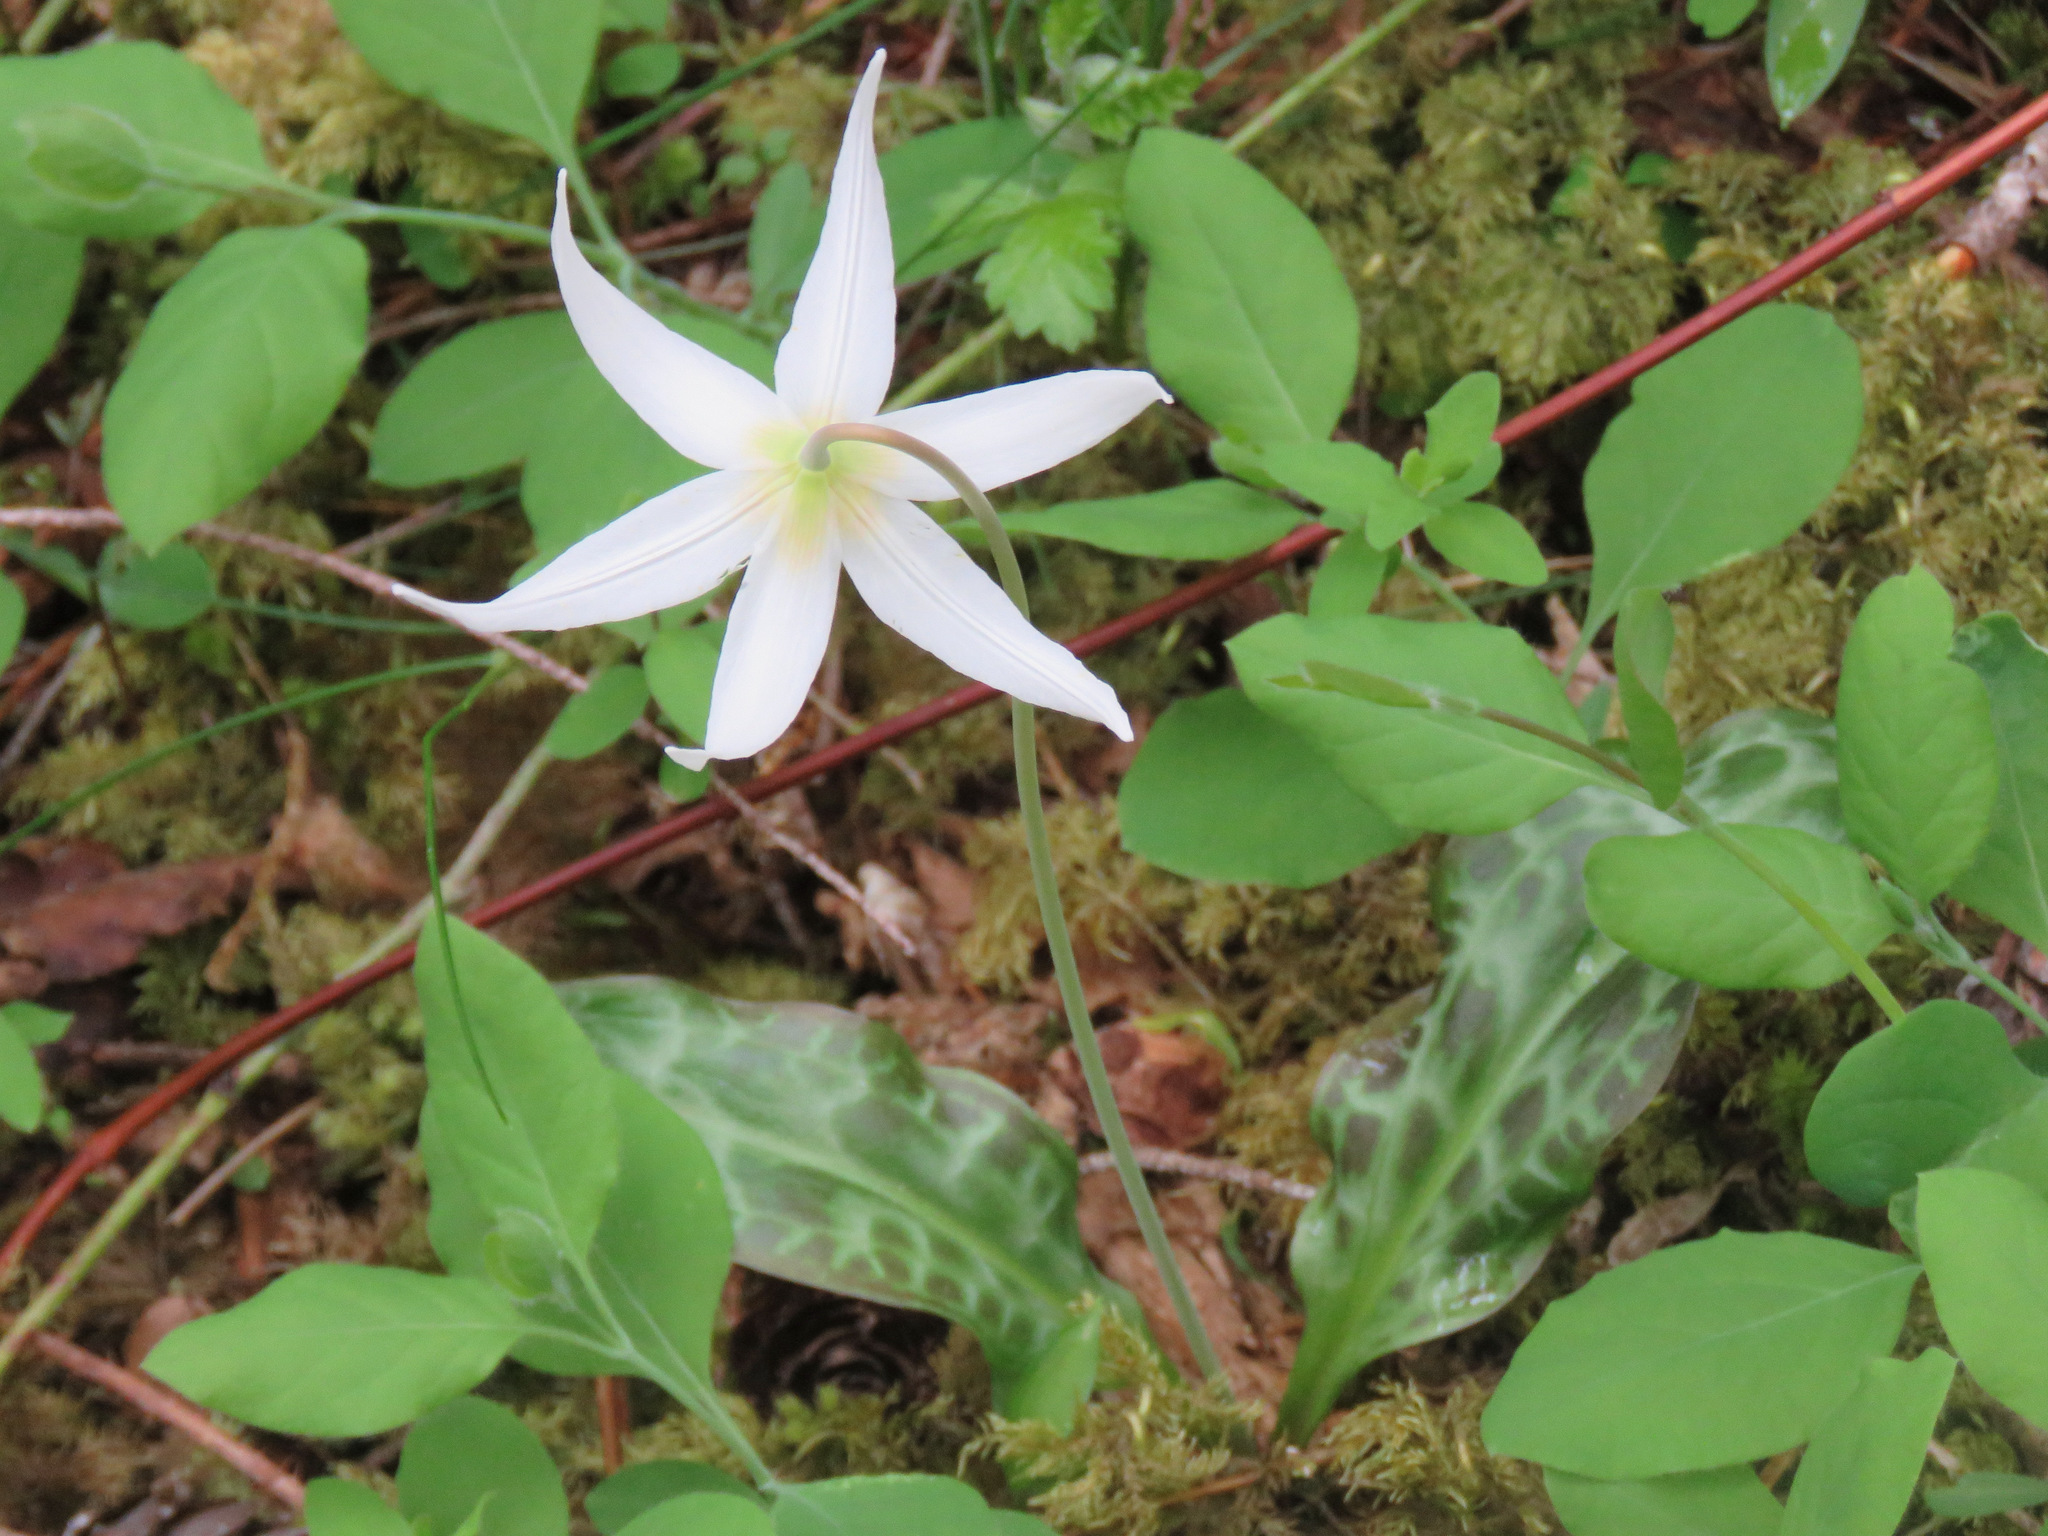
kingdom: Plantae
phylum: Tracheophyta
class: Liliopsida
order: Liliales
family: Liliaceae
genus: Erythronium
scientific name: Erythronium oregonum
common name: Giant adder's-tongue
